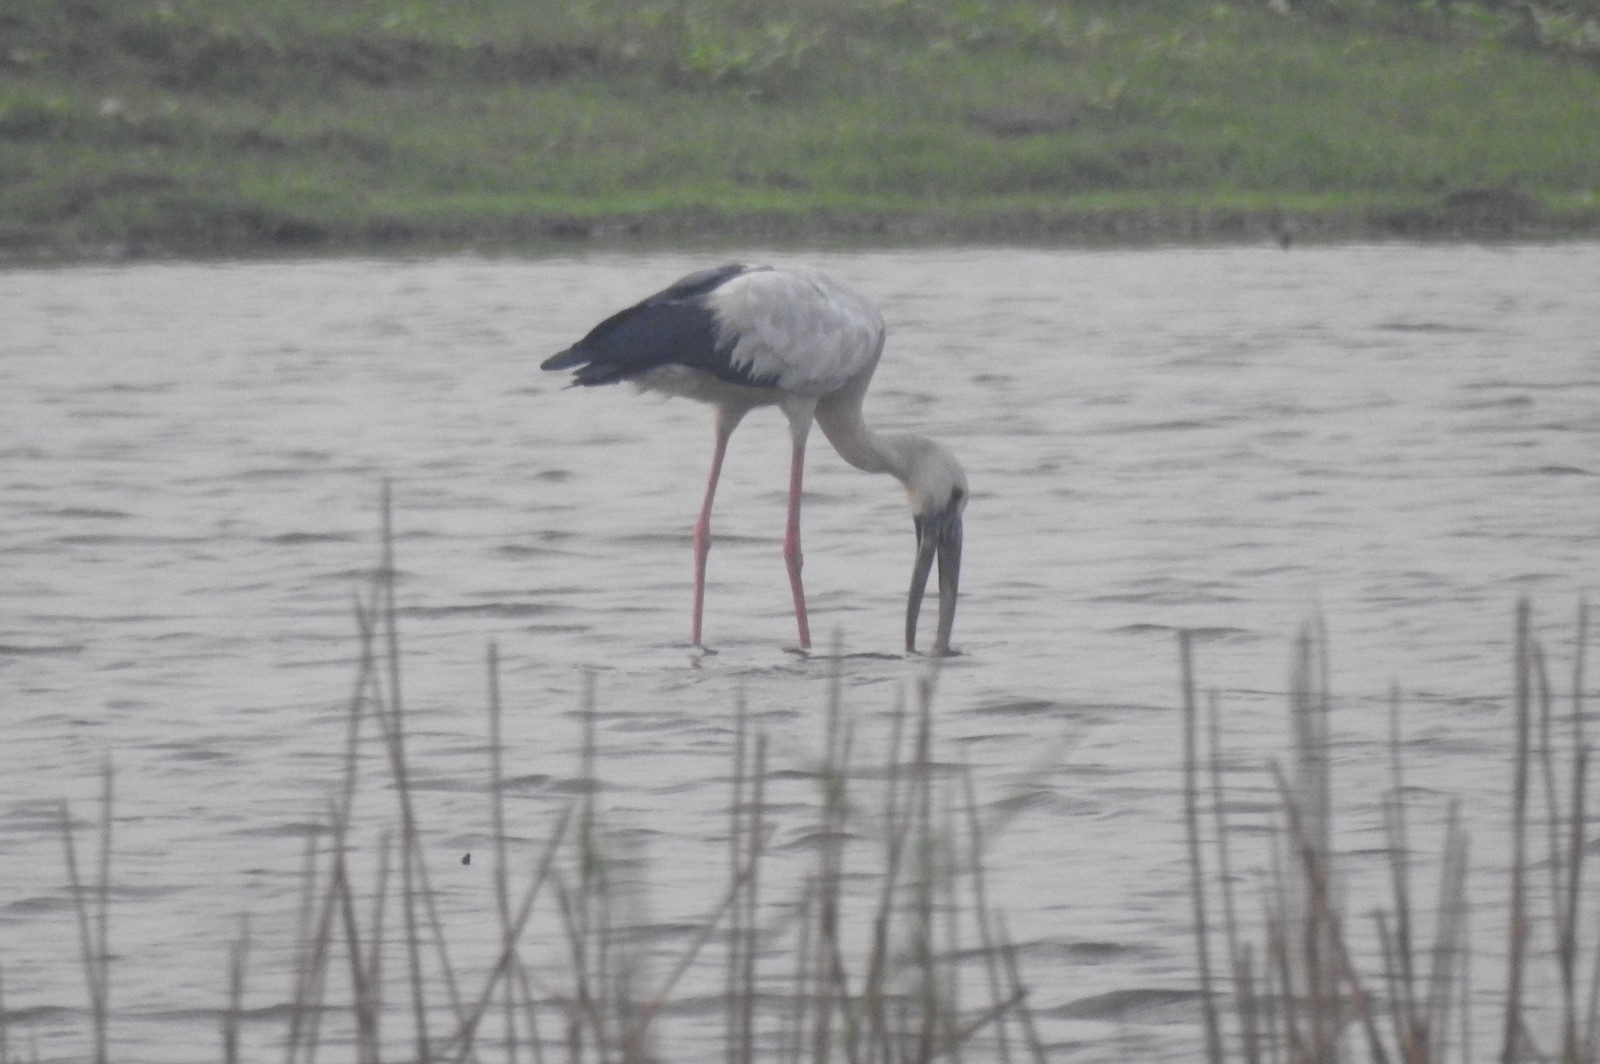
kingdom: Animalia
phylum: Chordata
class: Aves
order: Ciconiiformes
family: Ciconiidae
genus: Anastomus
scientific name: Anastomus oscitans
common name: Asian openbill
